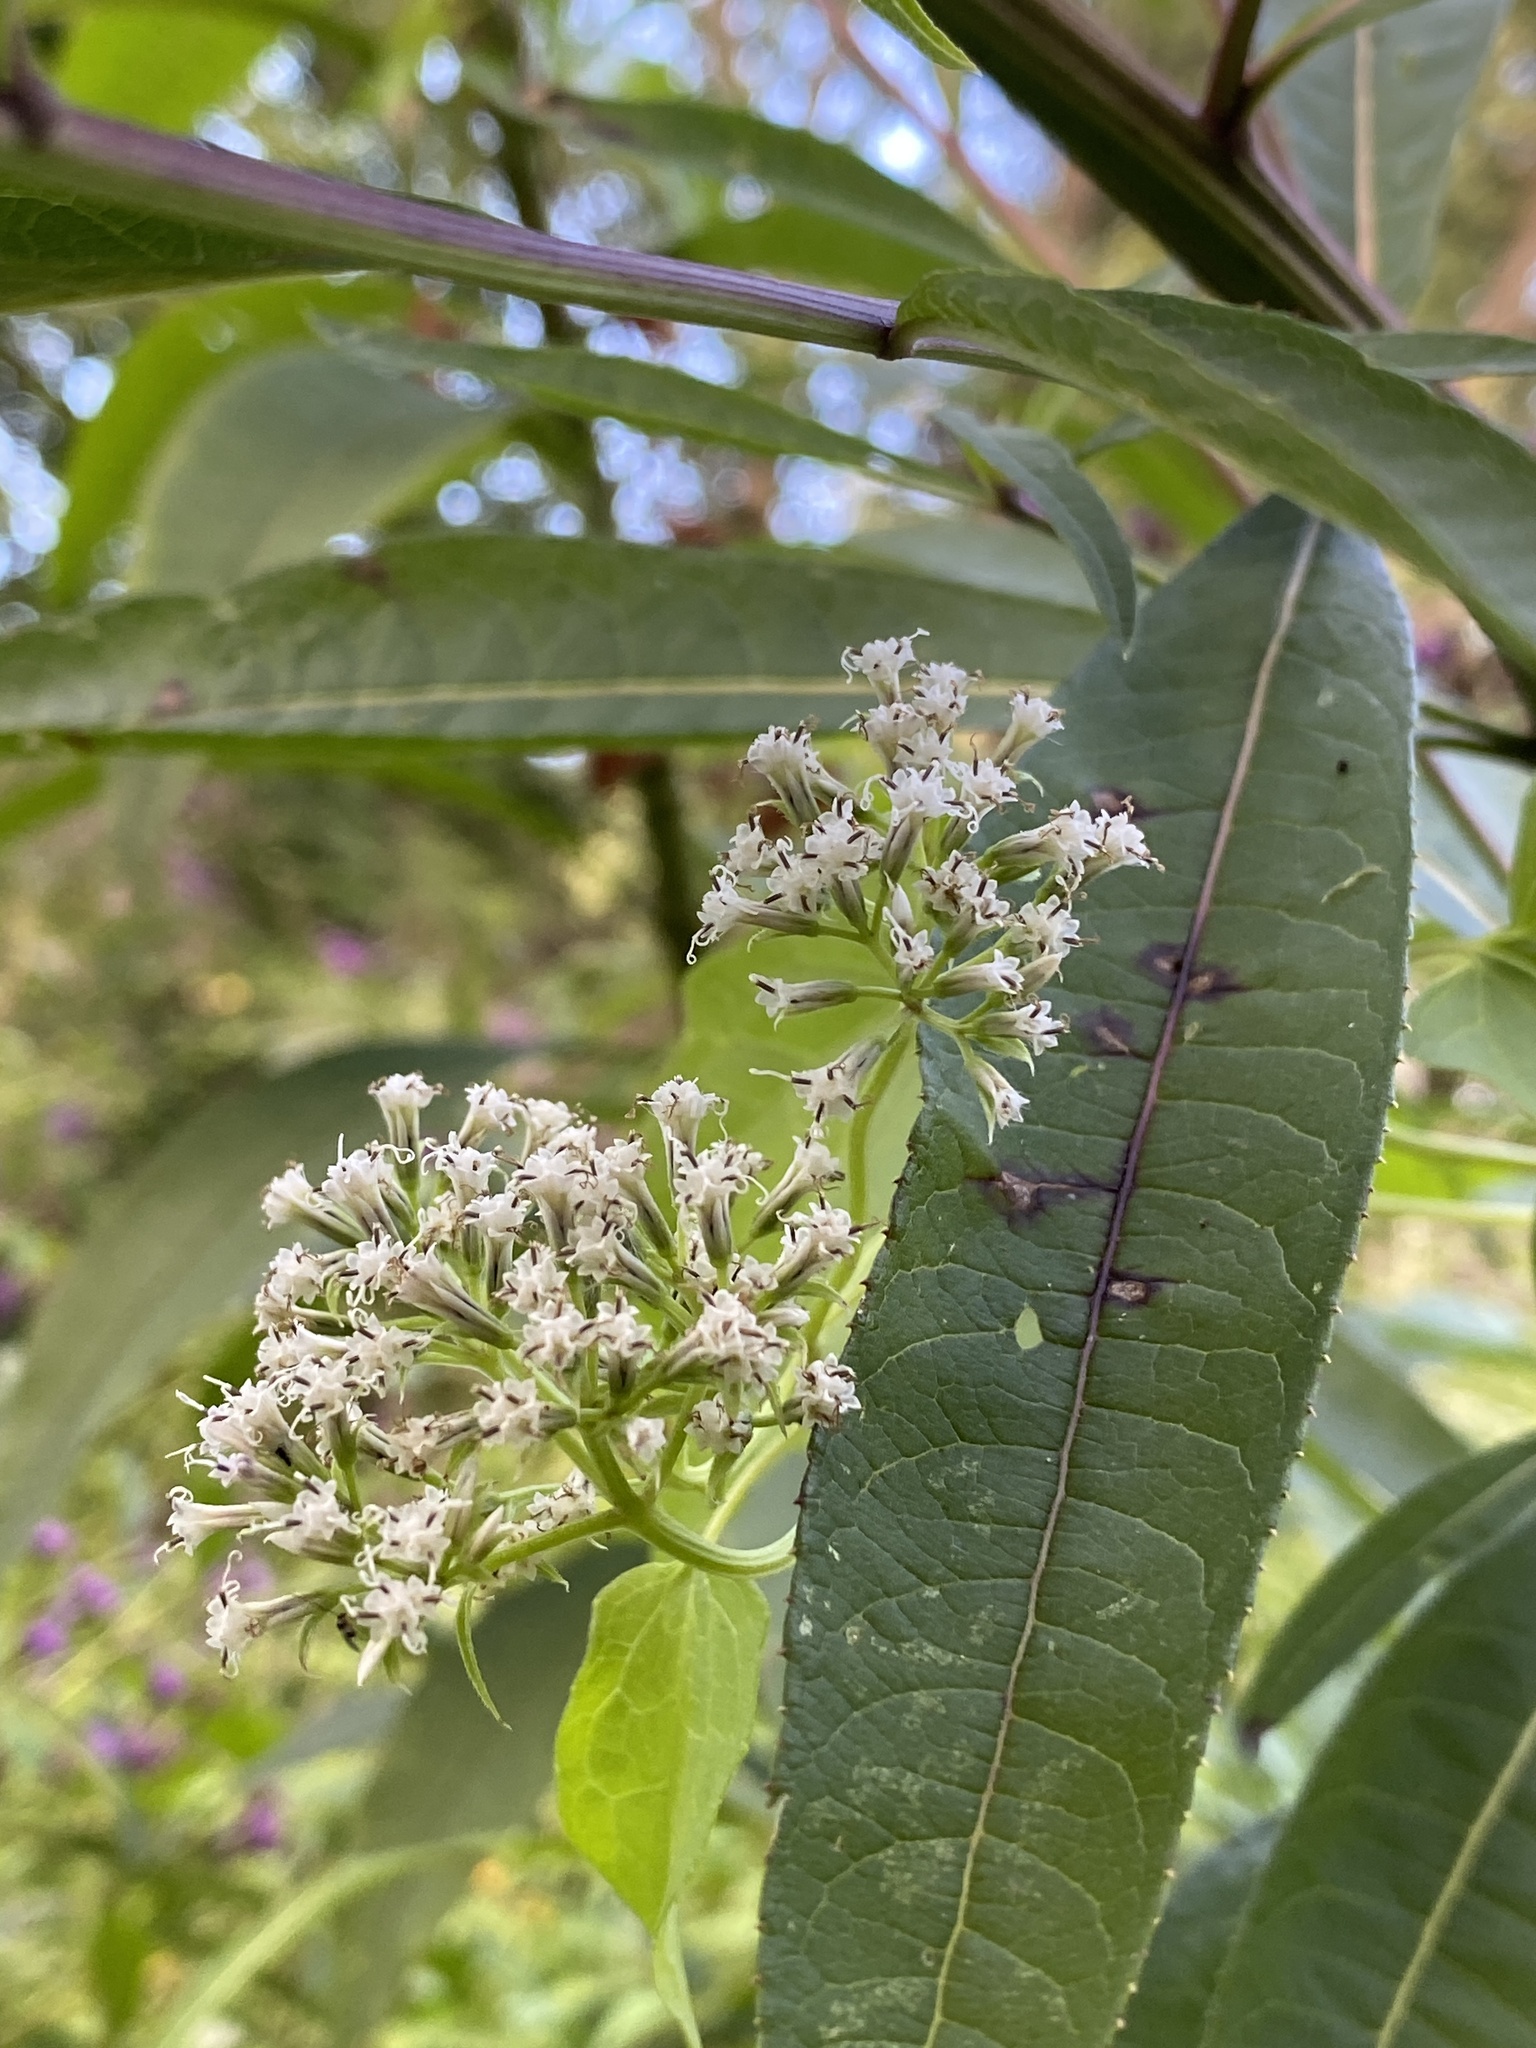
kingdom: Plantae
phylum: Tracheophyta
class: Magnoliopsida
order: Asterales
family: Asteraceae
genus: Mikania
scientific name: Mikania scandens
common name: Climbing hempvine
